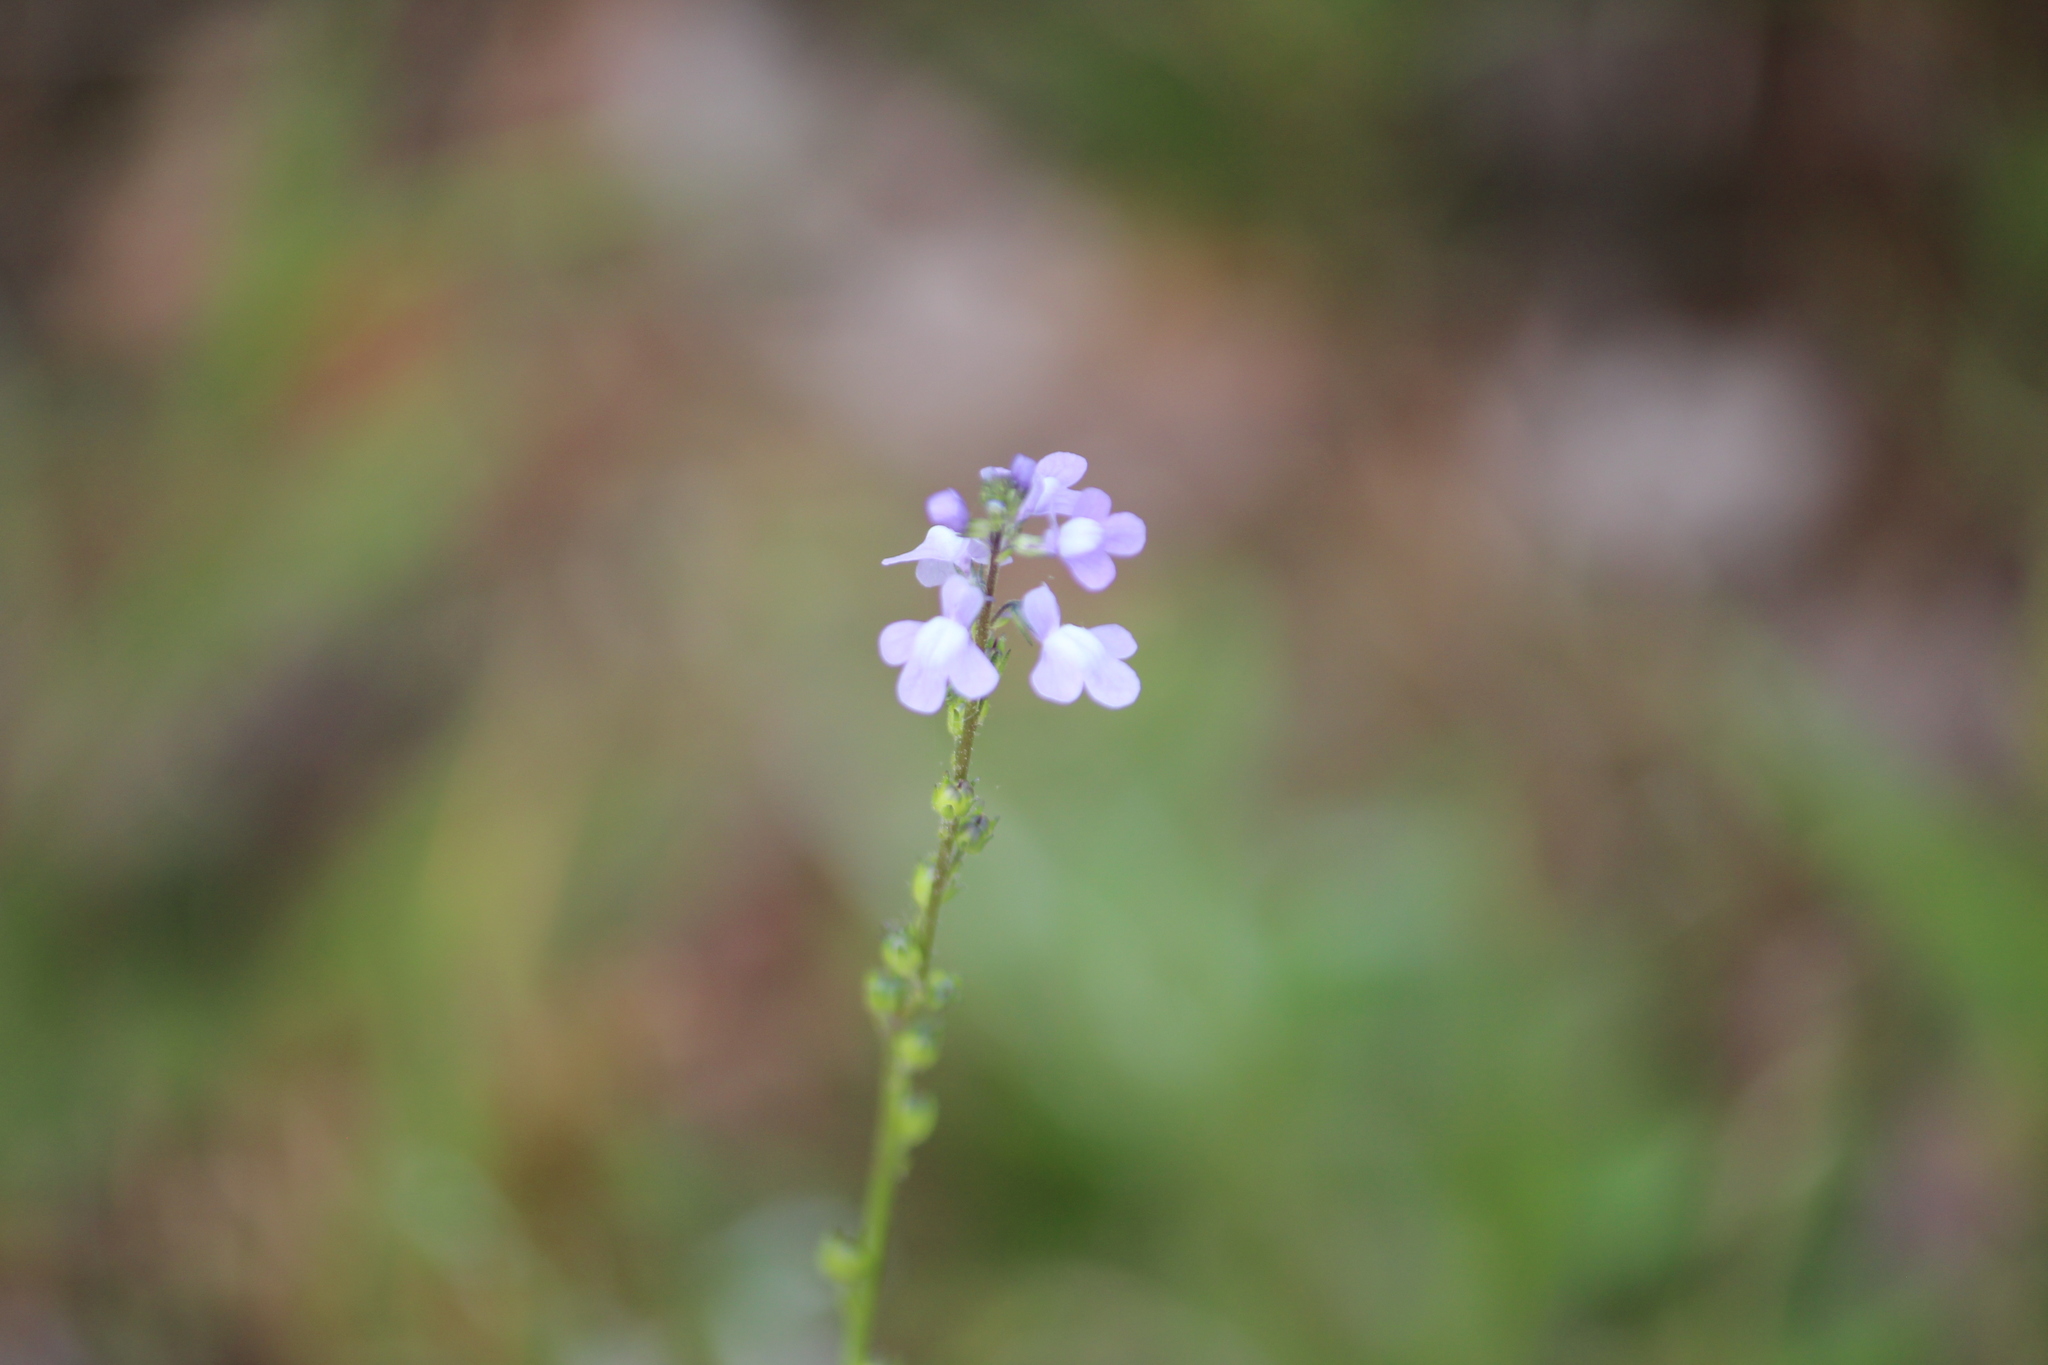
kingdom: Plantae
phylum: Tracheophyta
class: Magnoliopsida
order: Lamiales
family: Plantaginaceae
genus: Nuttallanthus
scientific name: Nuttallanthus canadensis
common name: Blue toadflax
